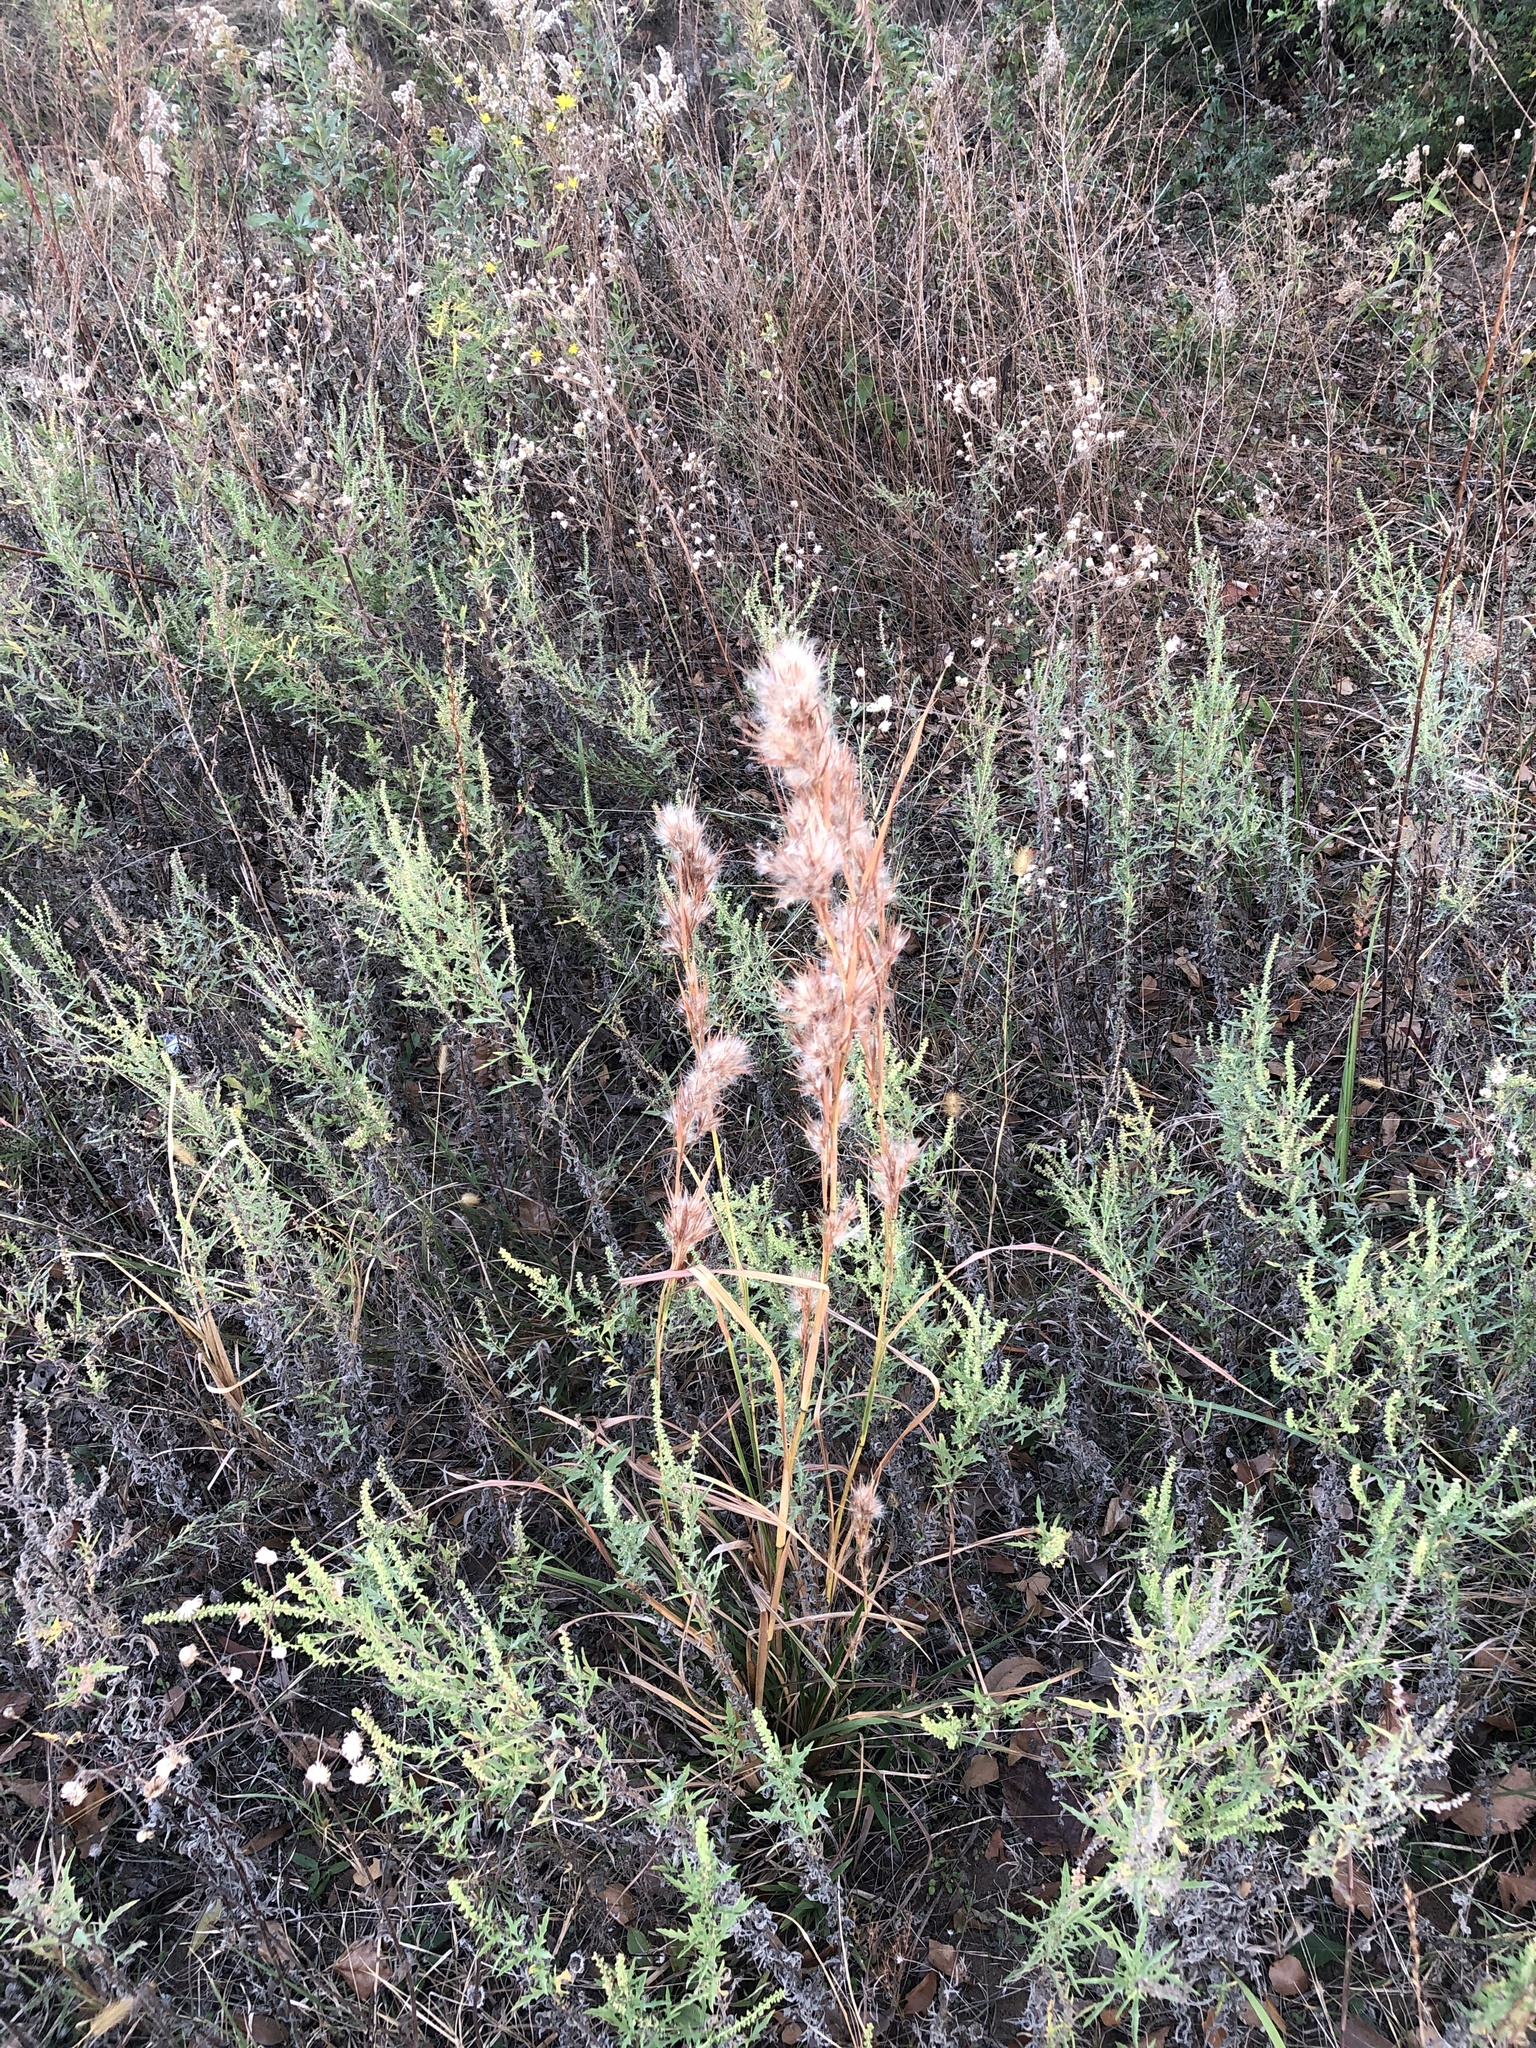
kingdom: Plantae
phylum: Tracheophyta
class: Liliopsida
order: Poales
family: Poaceae
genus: Andropogon
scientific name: Andropogon tenuispatheus
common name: Bushy bluestem
